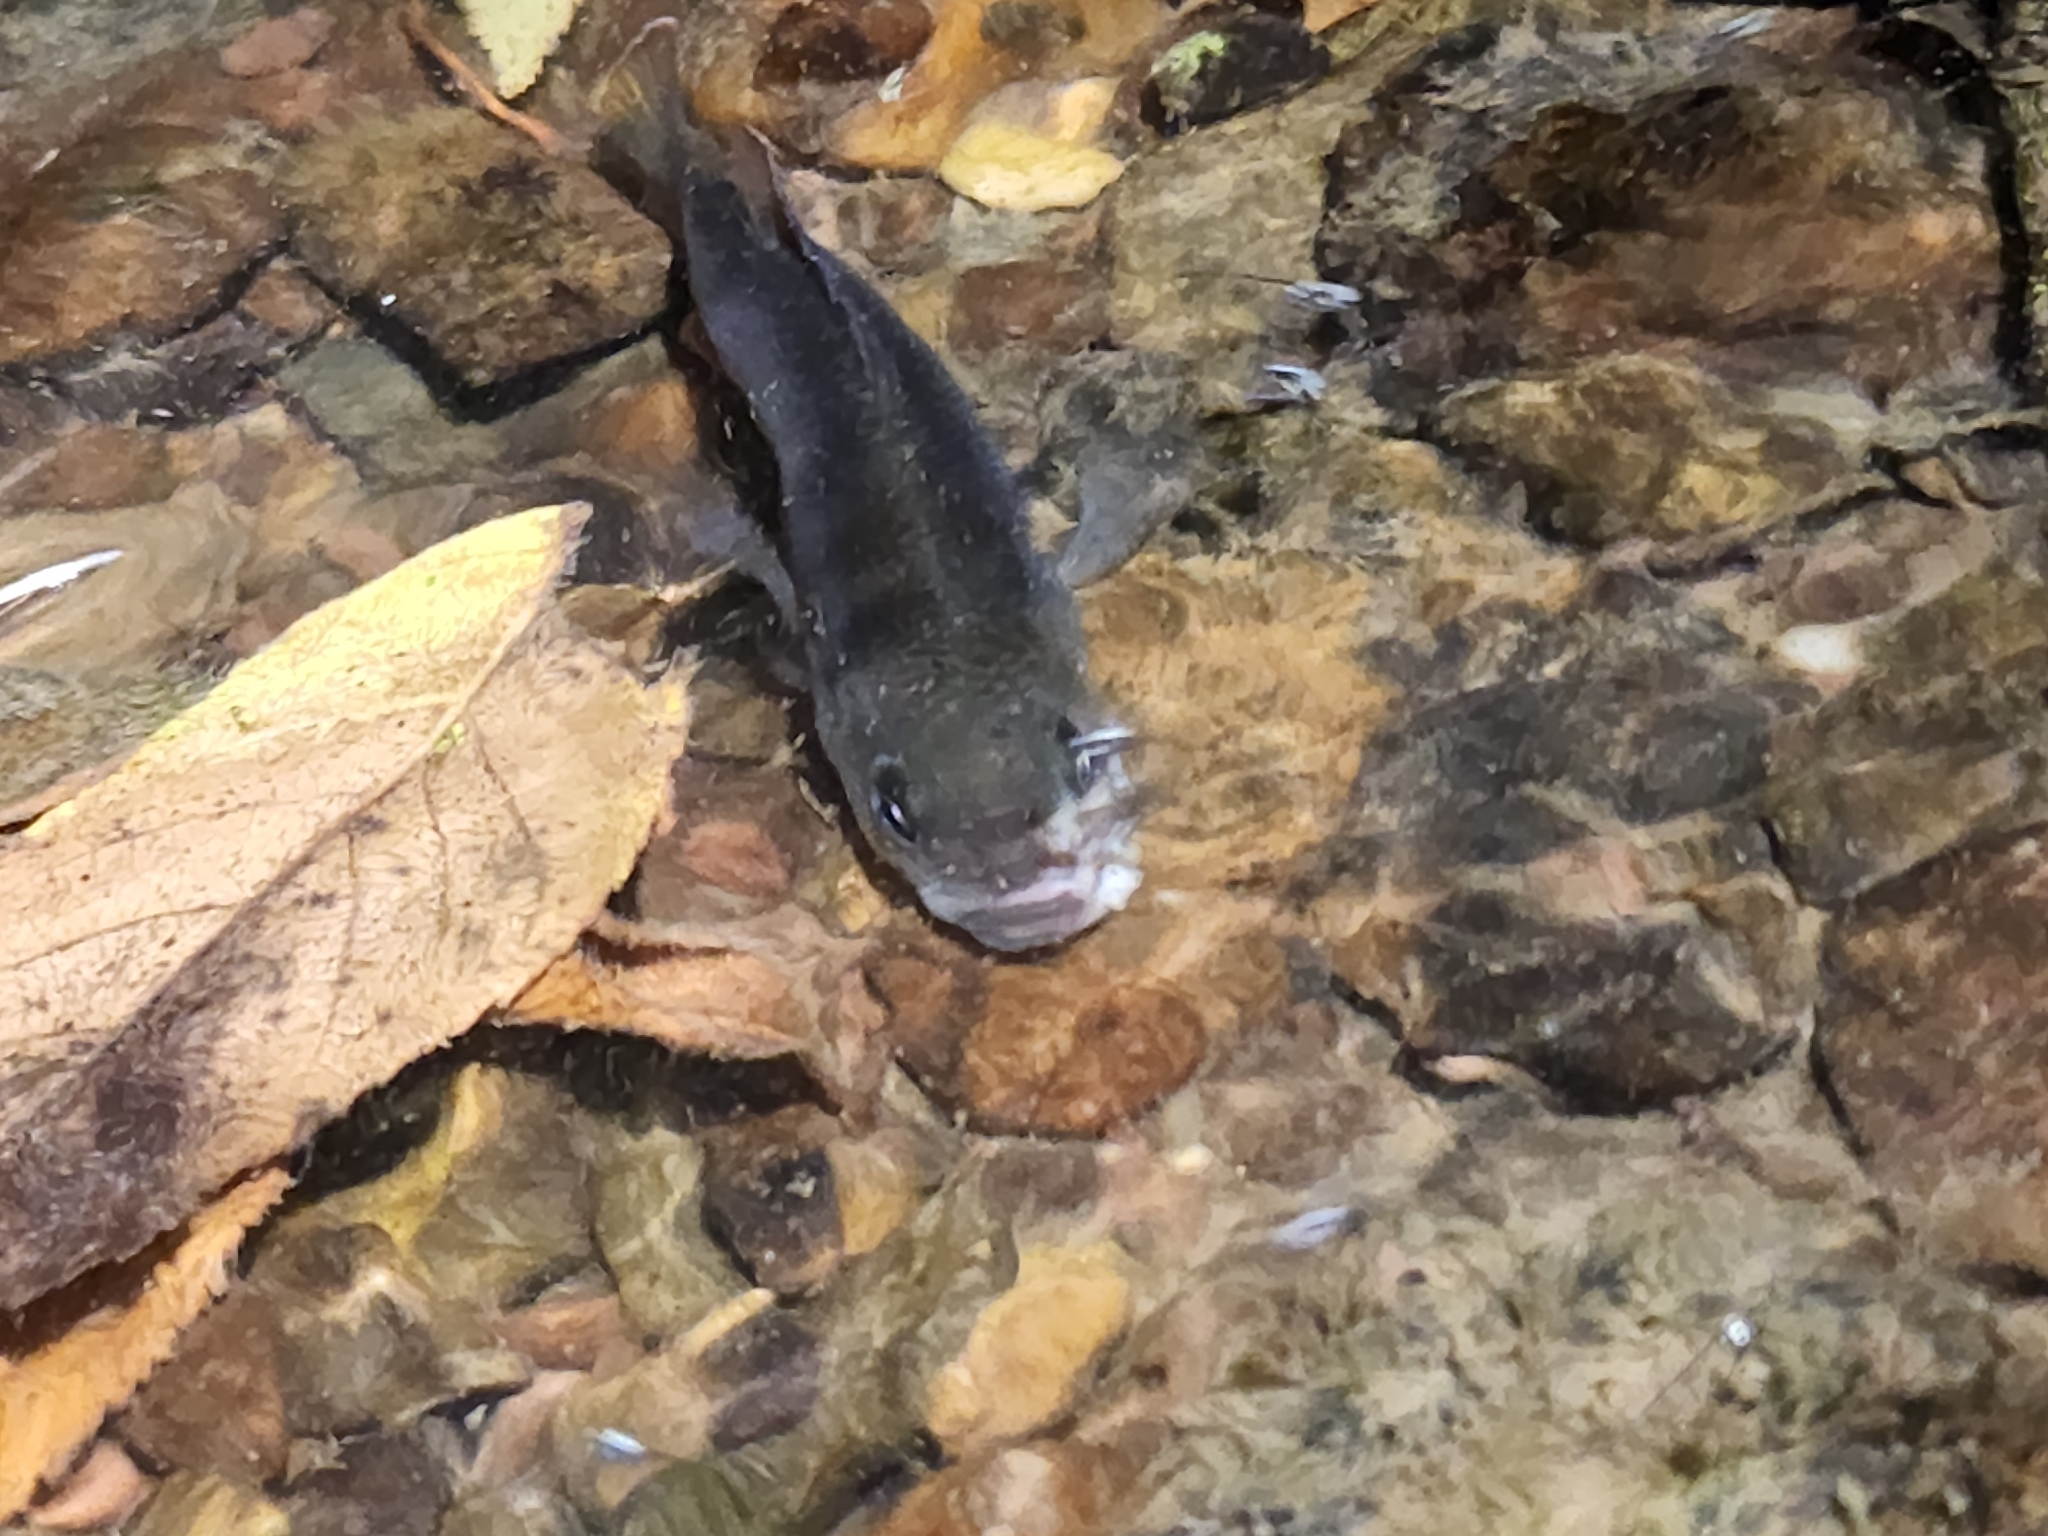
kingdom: Animalia
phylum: Chordata
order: Perciformes
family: Centrarchidae
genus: Lepomis
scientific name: Lepomis cyanellus
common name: Green sunfish
